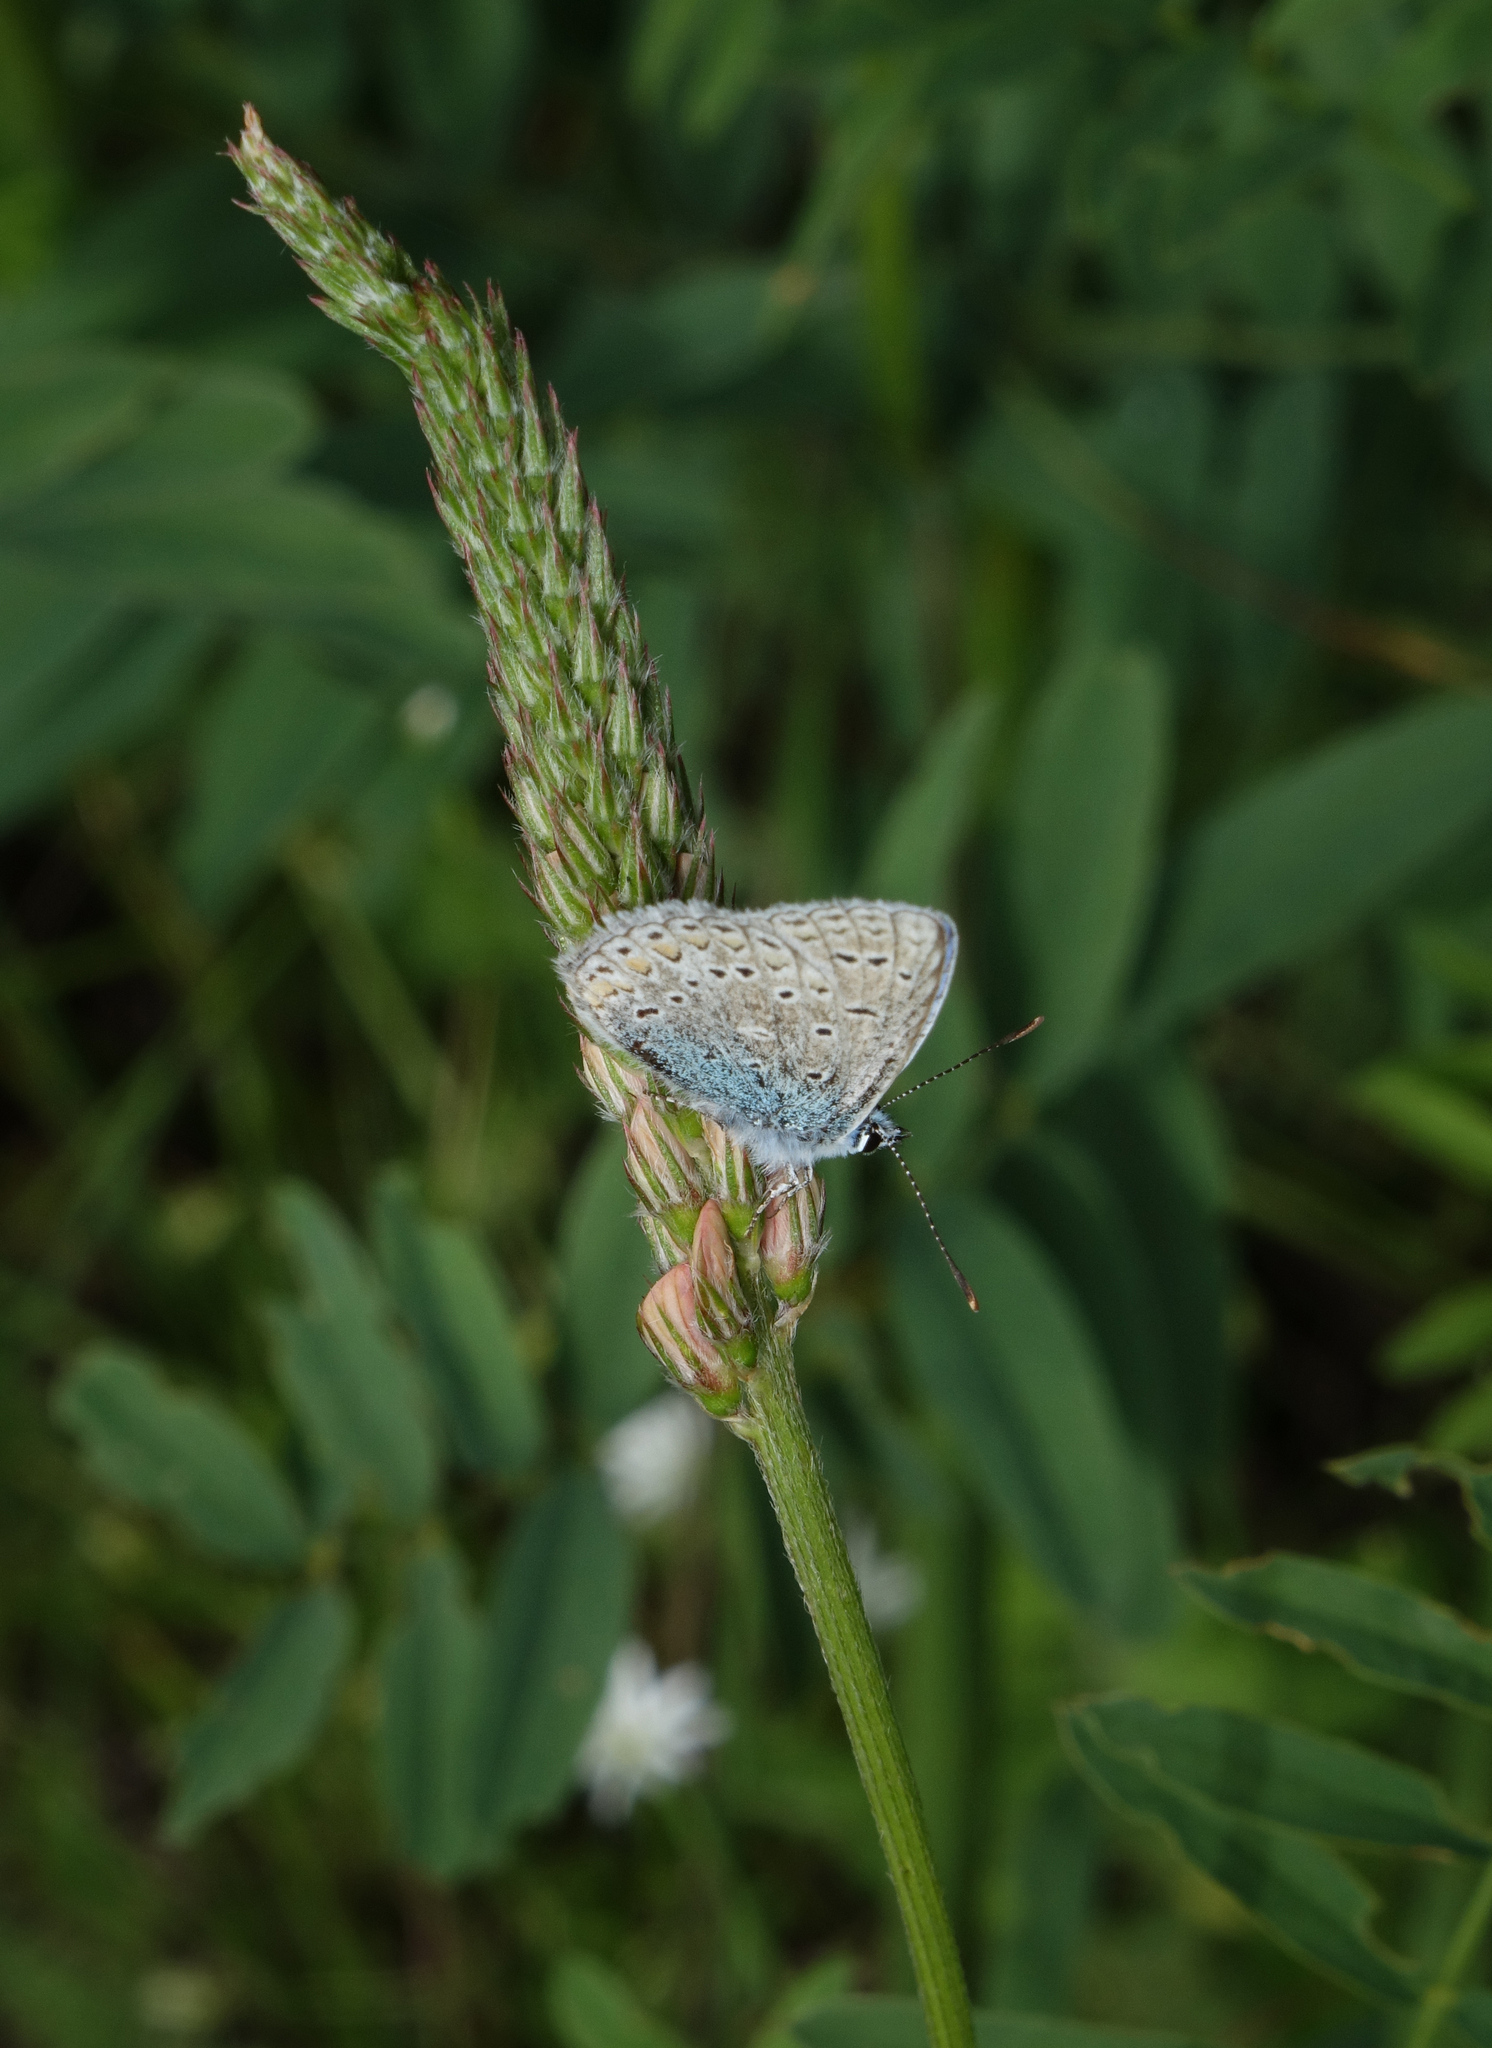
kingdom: Animalia
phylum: Arthropoda
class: Insecta
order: Lepidoptera
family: Lycaenidae
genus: Polyommatus
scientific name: Polyommatus thersites
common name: Chapman's blue
